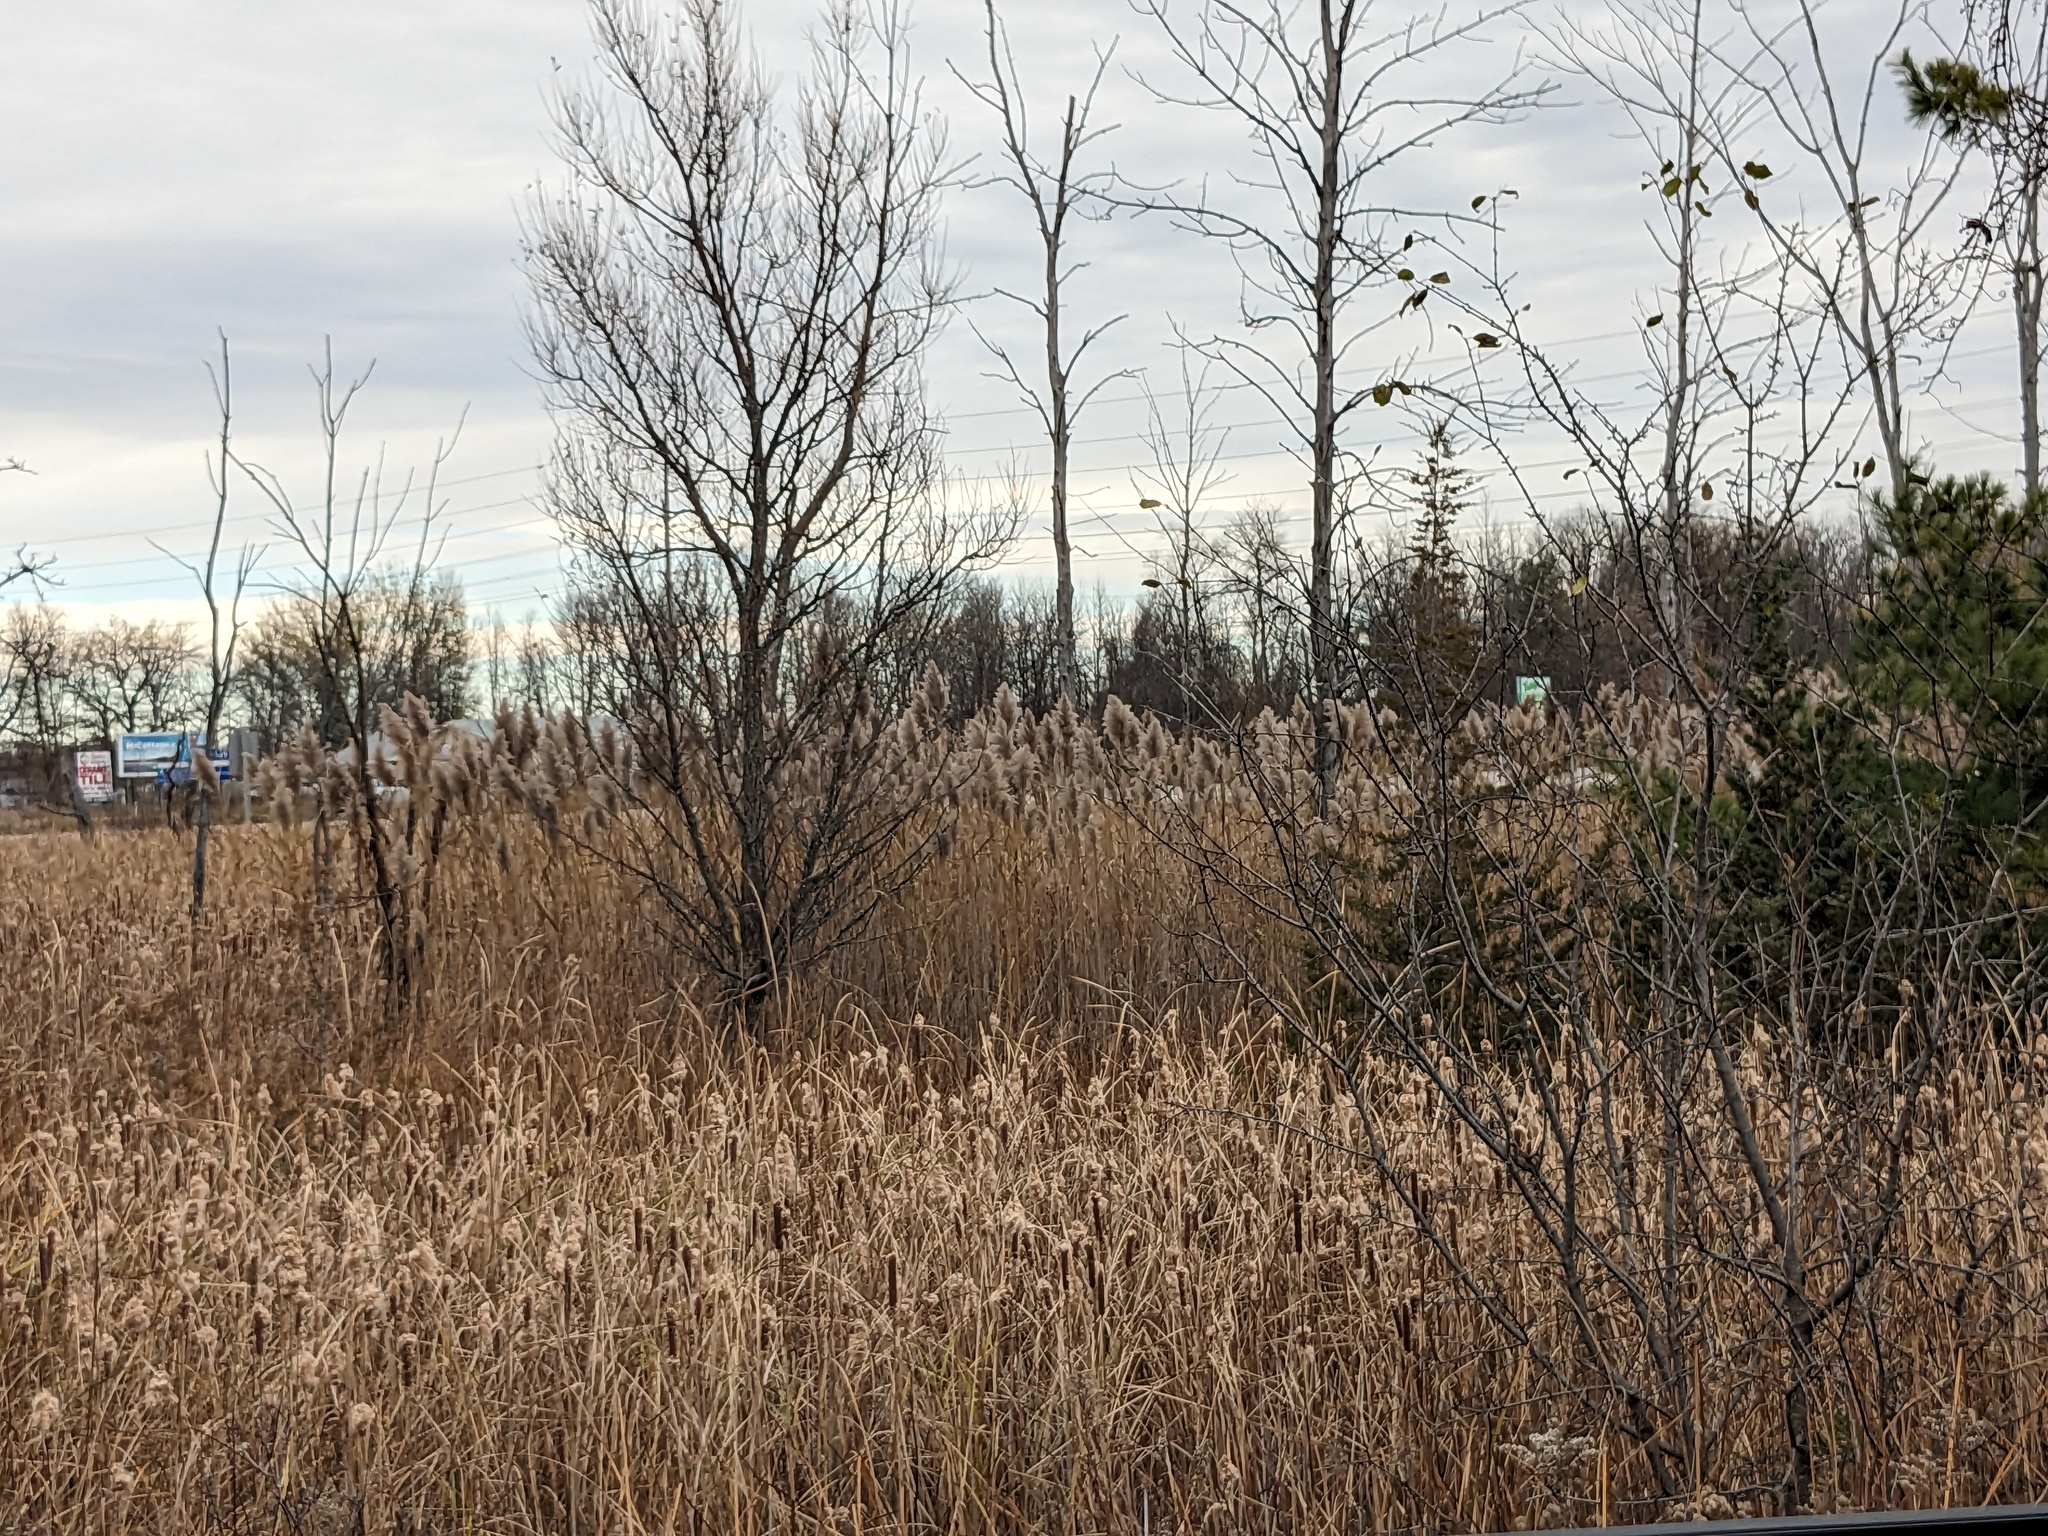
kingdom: Plantae
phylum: Tracheophyta
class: Liliopsida
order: Poales
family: Poaceae
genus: Phragmites
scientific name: Phragmites australis
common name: Common reed
